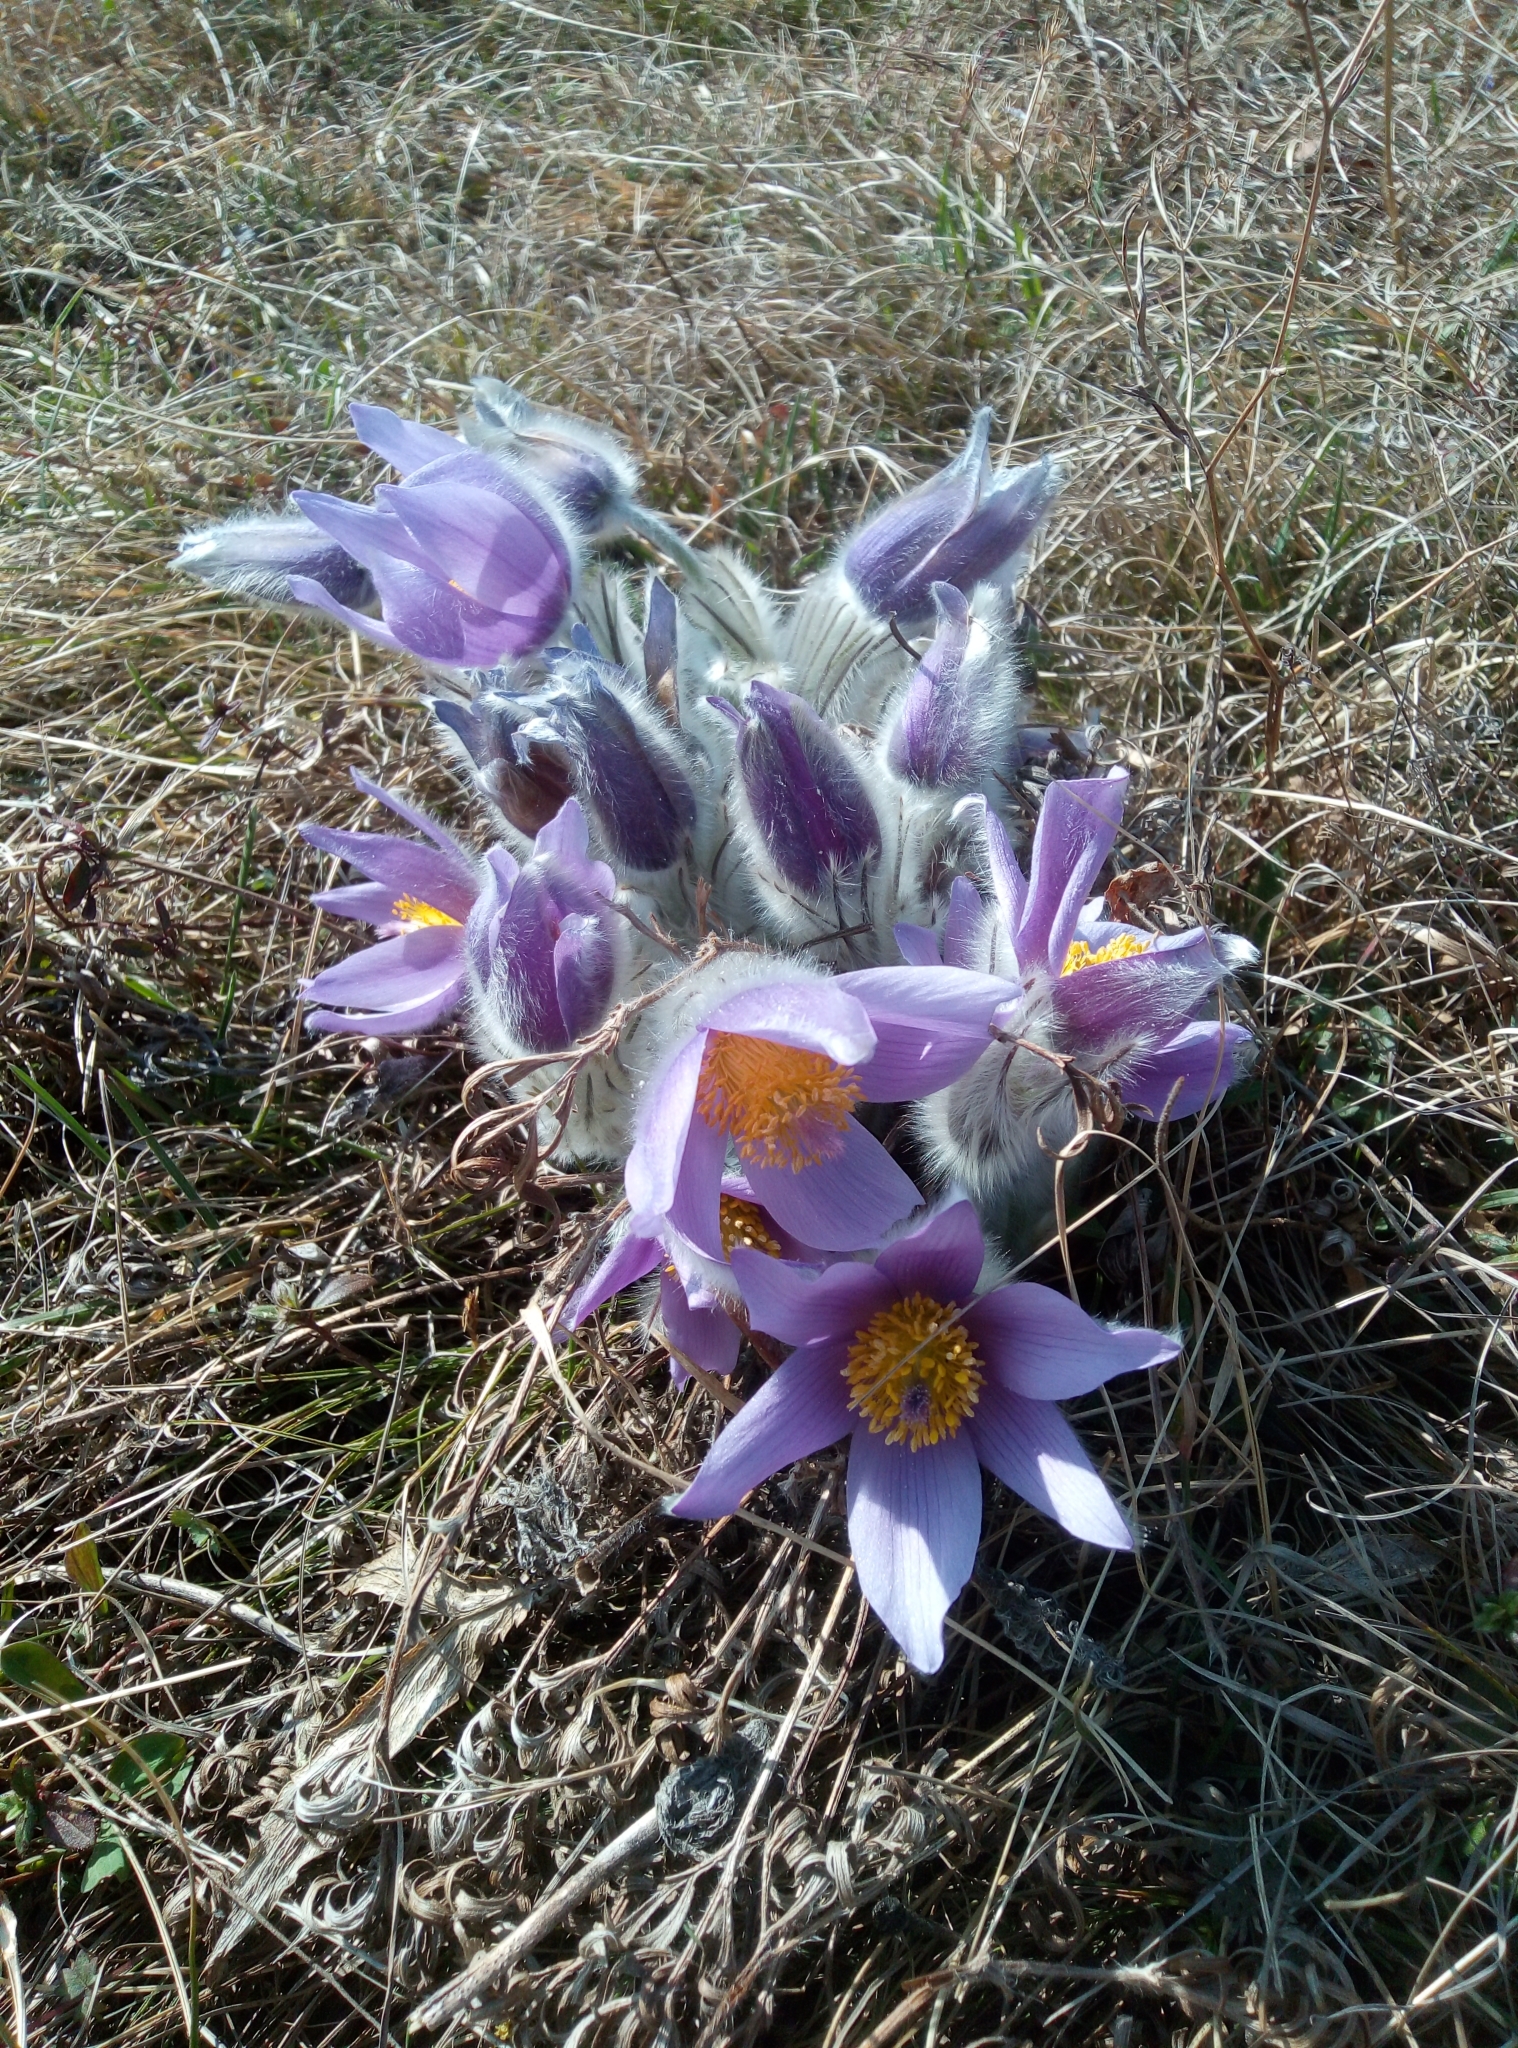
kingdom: Plantae
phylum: Tracheophyta
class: Magnoliopsida
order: Ranunculales
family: Ranunculaceae
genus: Pulsatilla
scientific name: Pulsatilla grandis
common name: Greater pasque flower
